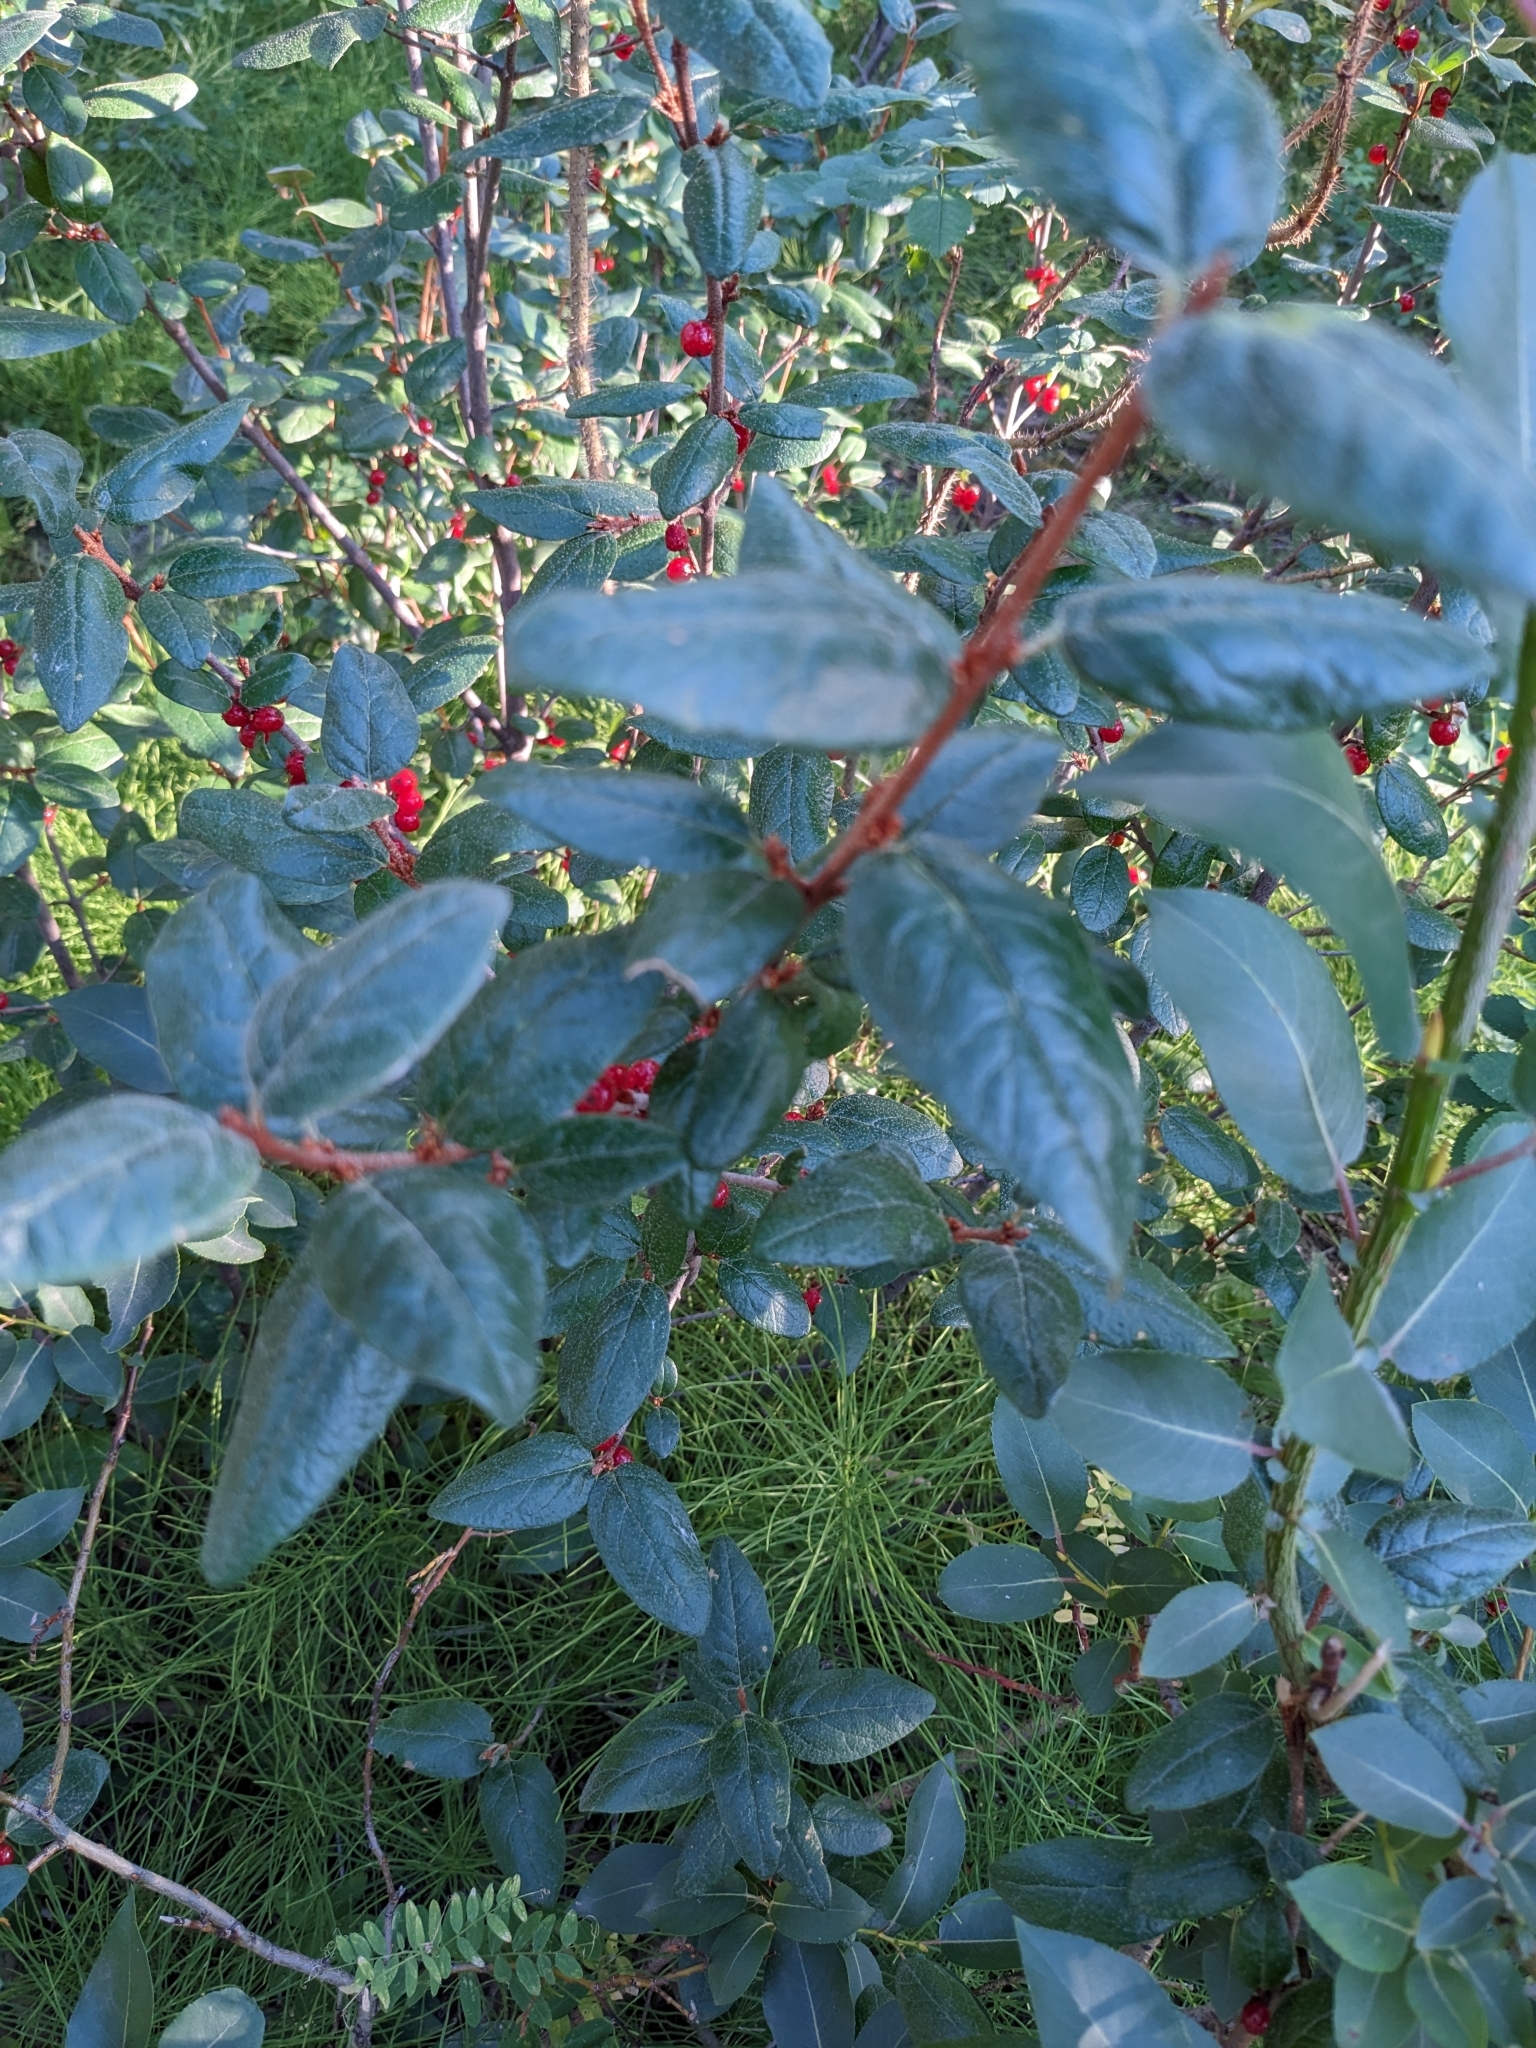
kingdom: Plantae
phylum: Tracheophyta
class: Magnoliopsida
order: Rosales
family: Elaeagnaceae
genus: Shepherdia
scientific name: Shepherdia canadensis
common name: Soapberry
